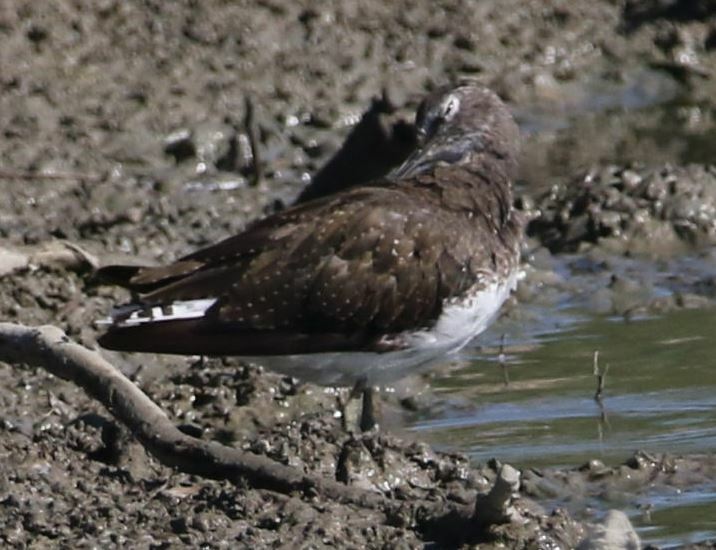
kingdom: Animalia
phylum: Chordata
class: Aves
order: Charadriiformes
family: Scolopacidae
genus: Tringa
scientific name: Tringa ochropus
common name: Green sandpiper
